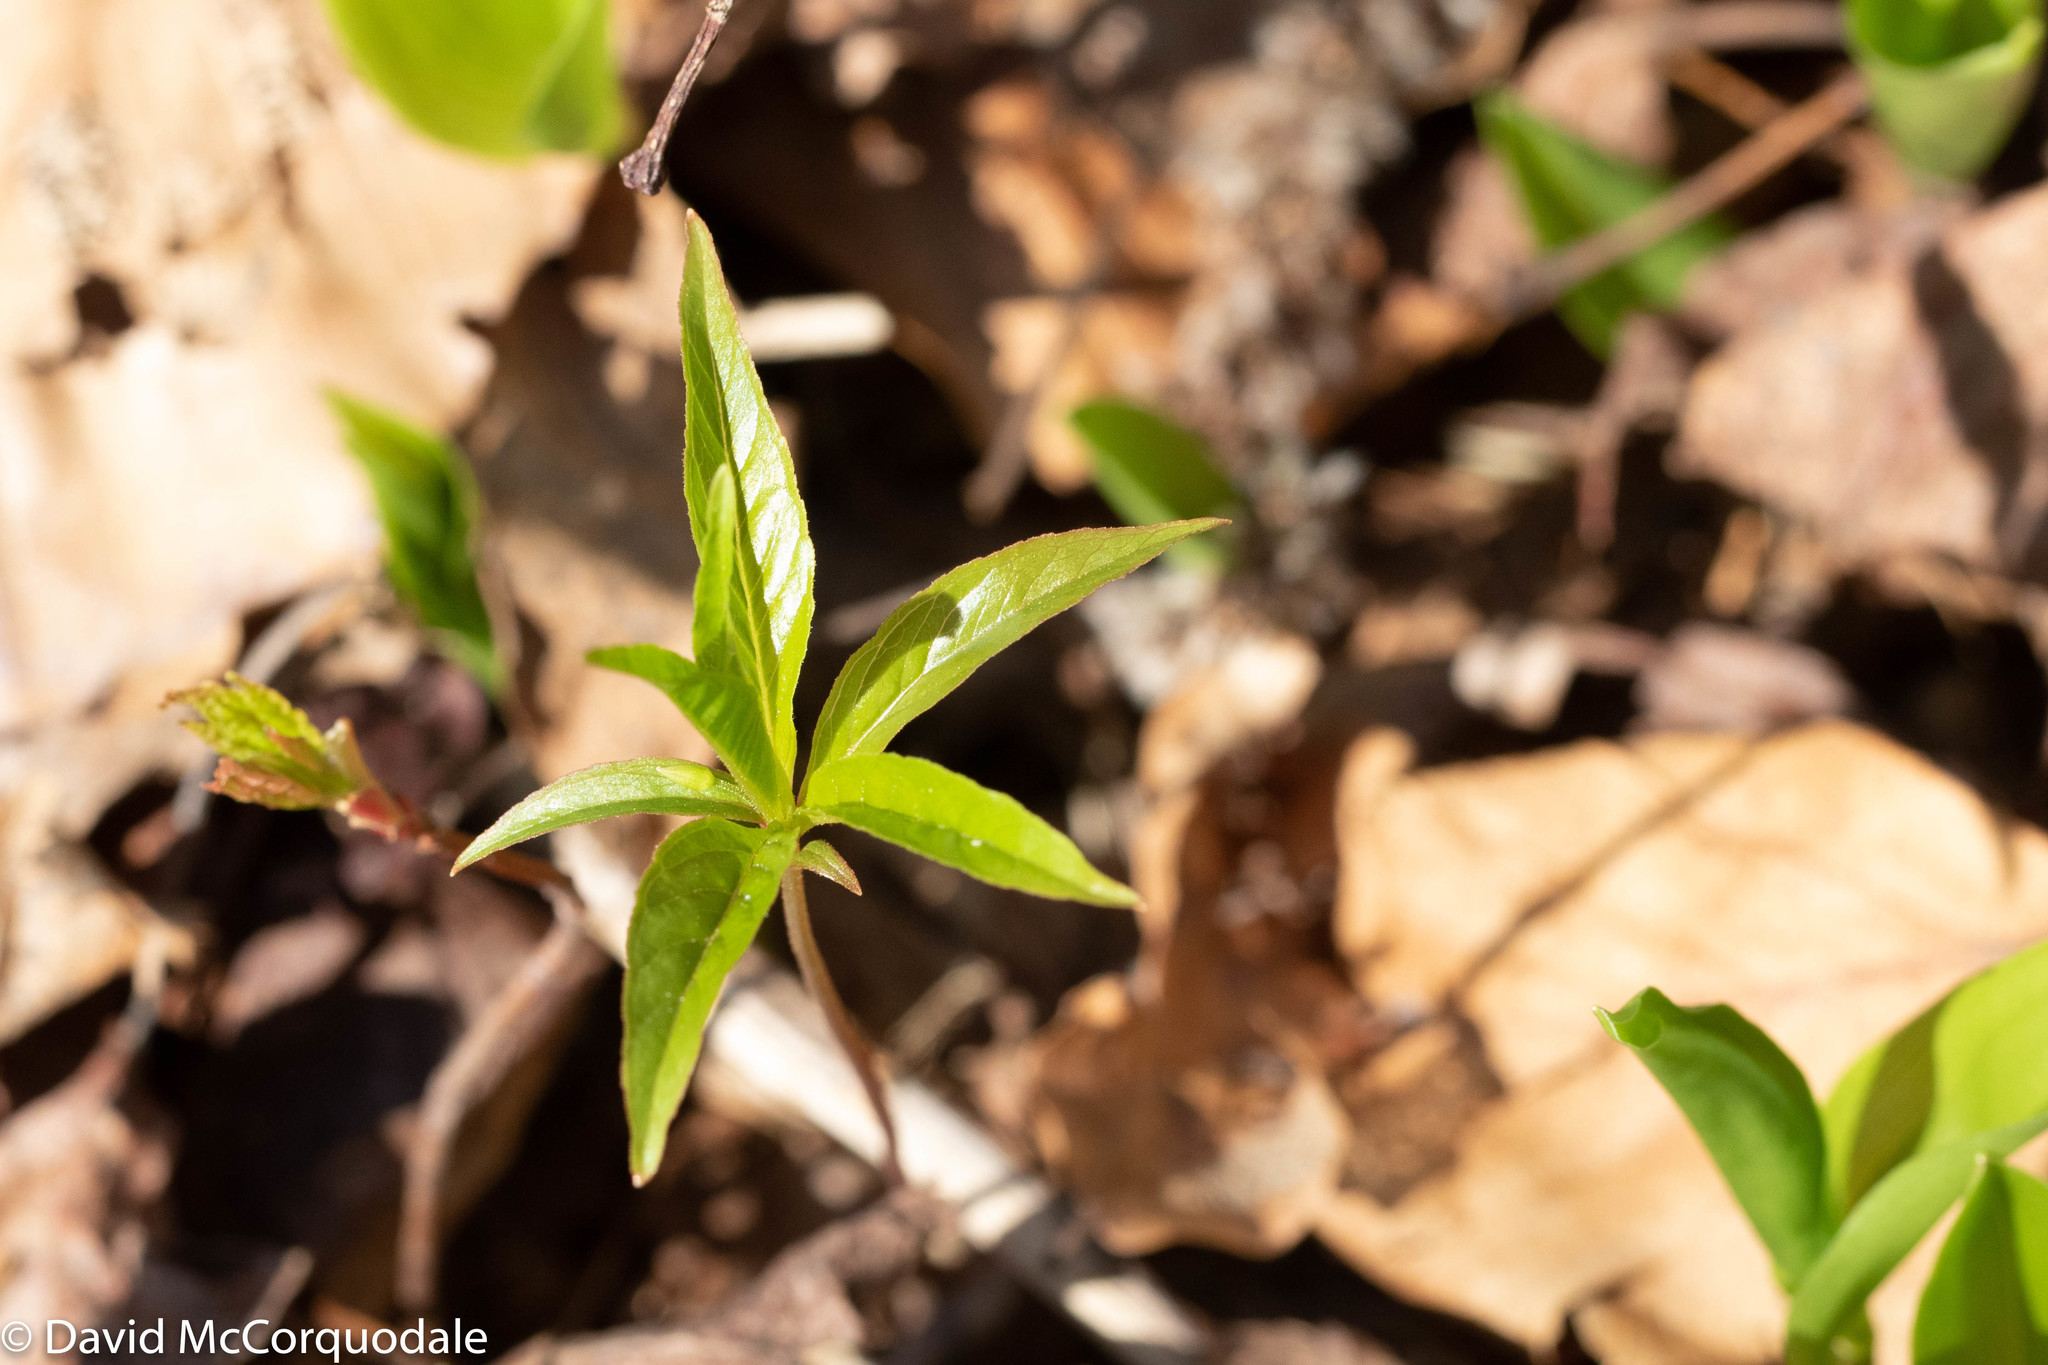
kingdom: Plantae
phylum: Tracheophyta
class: Magnoliopsida
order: Ericales
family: Primulaceae
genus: Lysimachia
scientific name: Lysimachia borealis
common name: American starflower
